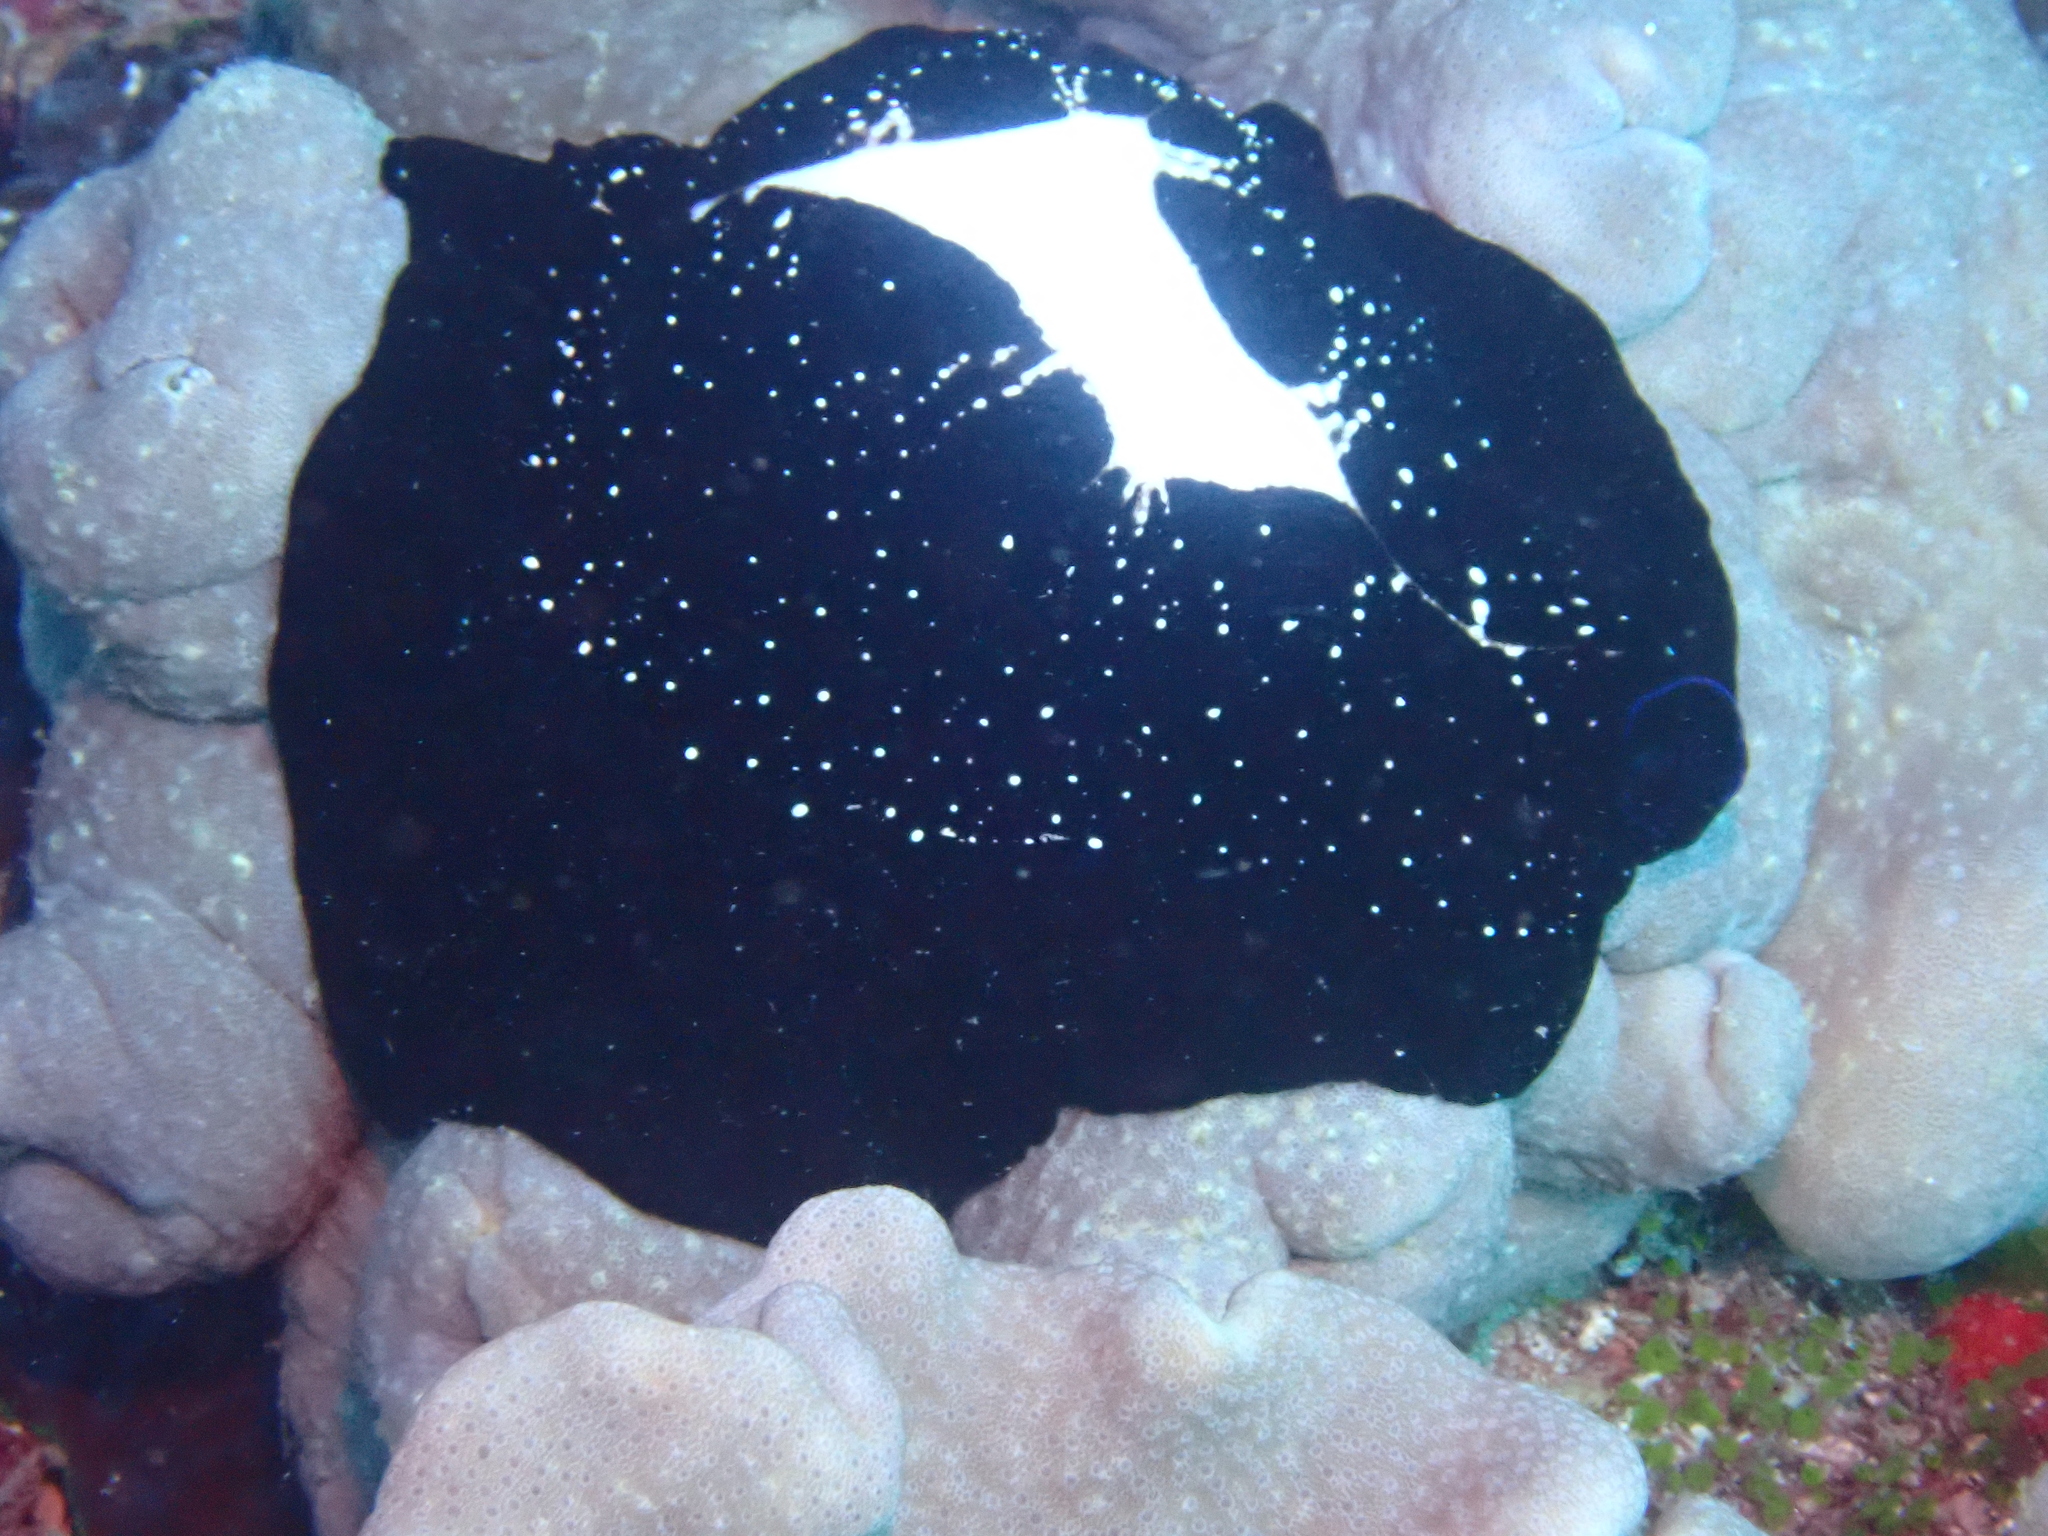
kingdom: Animalia
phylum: Mollusca
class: Gastropoda
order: Littorinimorpha
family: Ovulidae
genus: Ovula
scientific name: Ovula ovum
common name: Common egg cowrie
